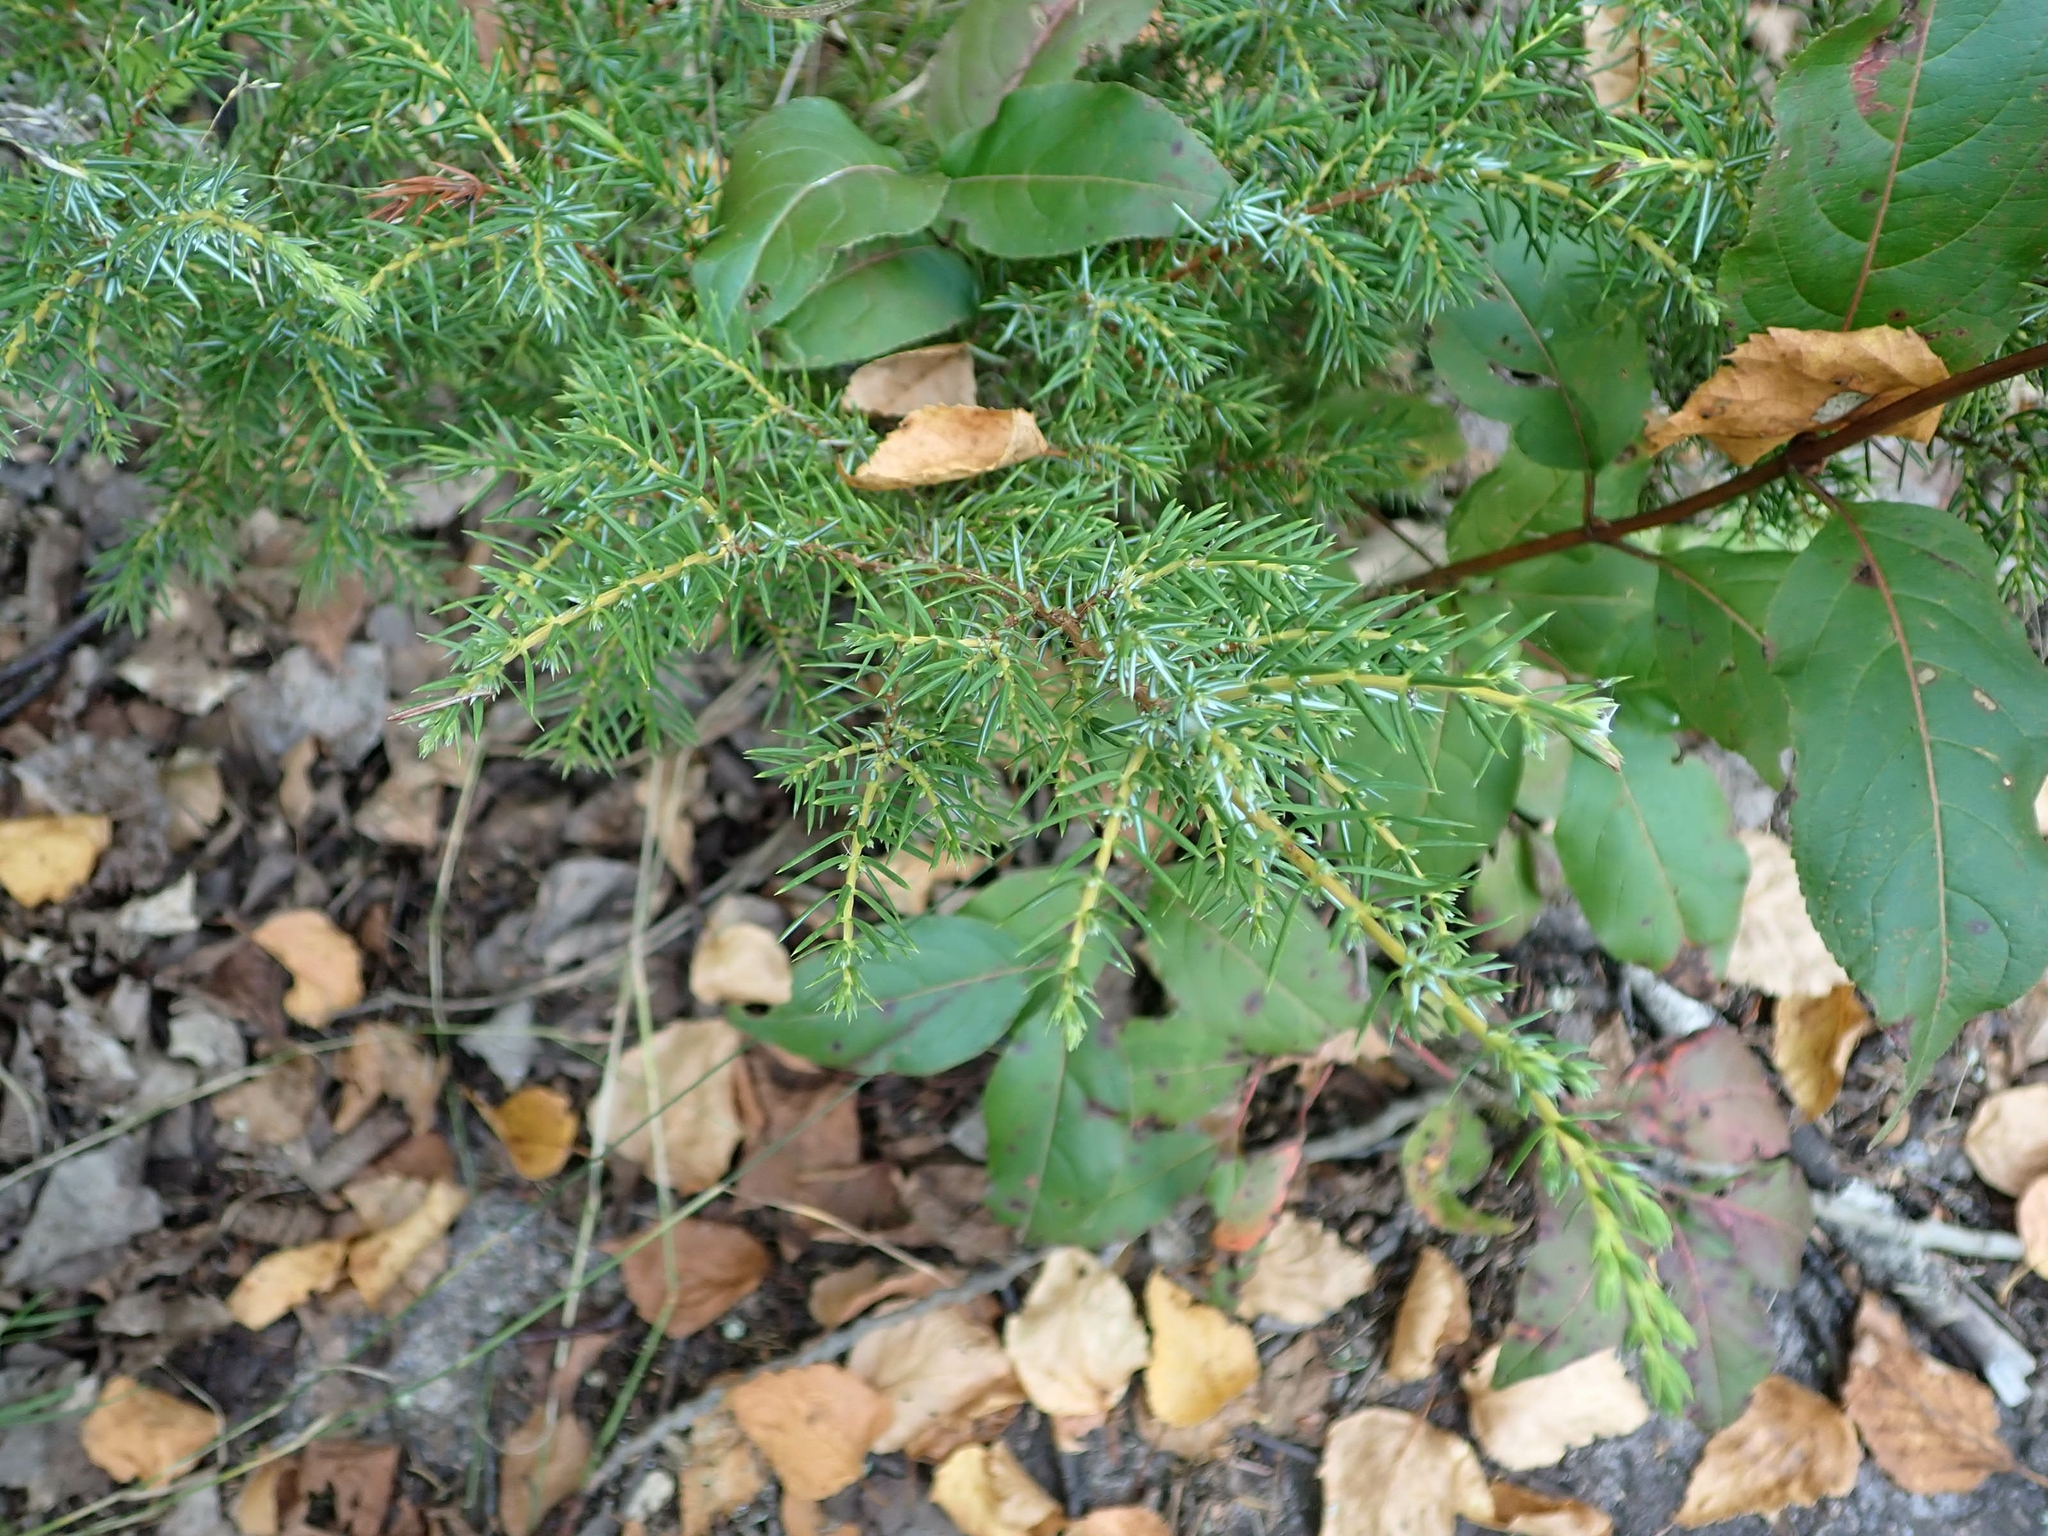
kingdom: Plantae
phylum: Tracheophyta
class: Pinopsida
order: Pinales
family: Cupressaceae
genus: Juniperus
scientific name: Juniperus communis
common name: Common juniper
